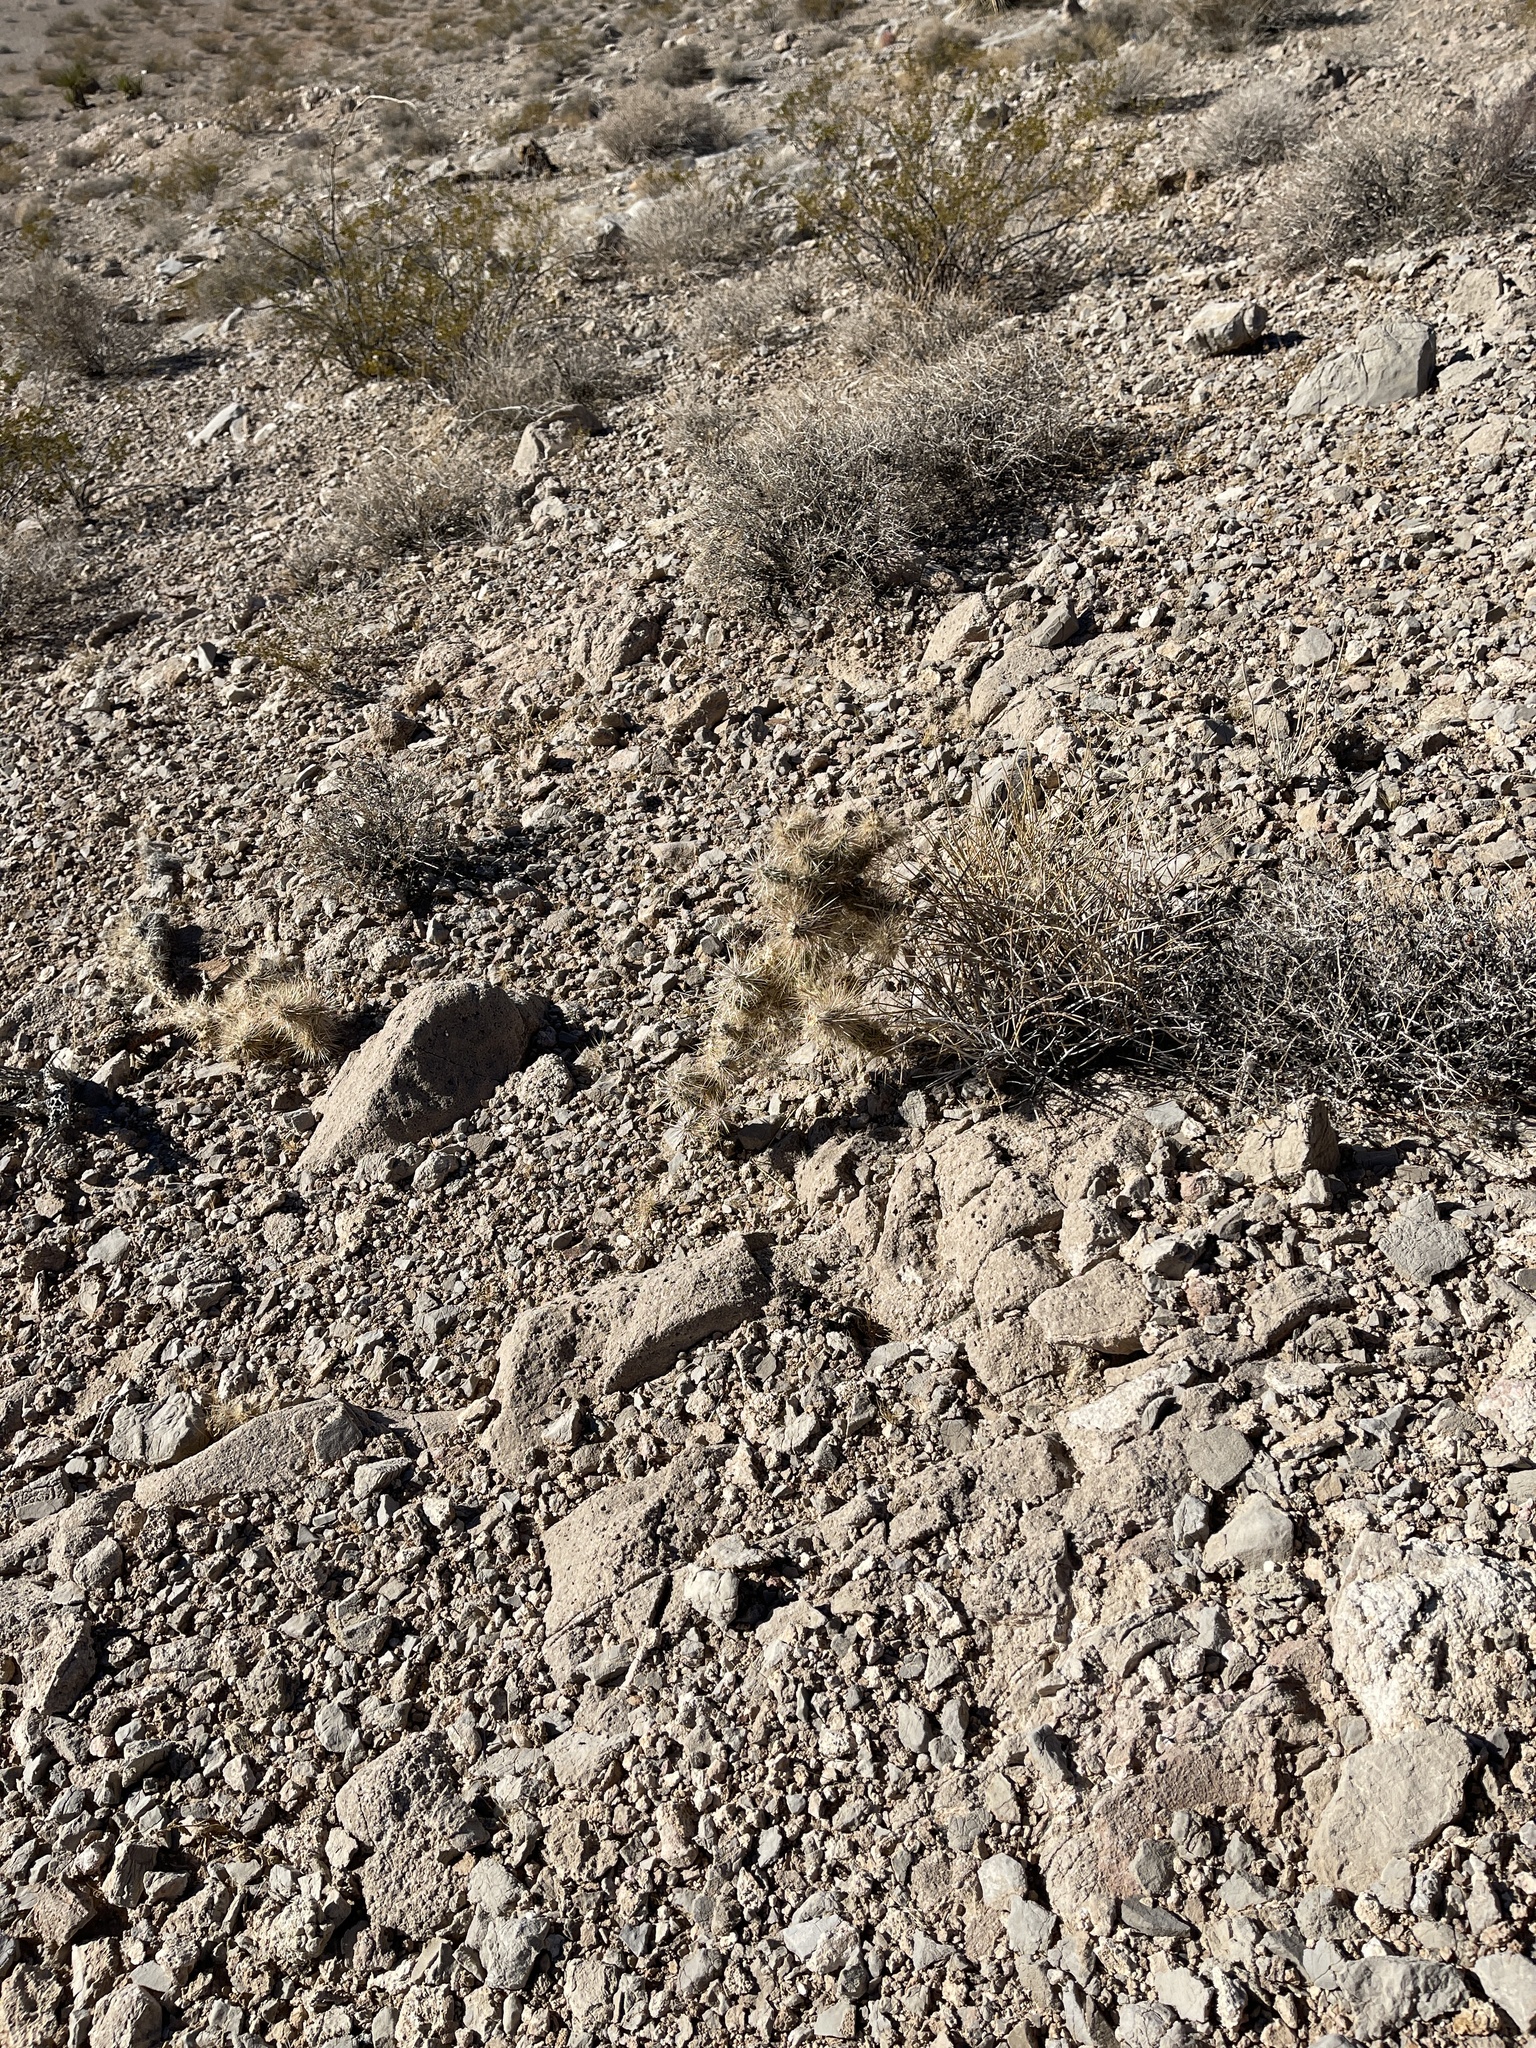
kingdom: Plantae
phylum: Tracheophyta
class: Magnoliopsida
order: Caryophyllales
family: Cactaceae
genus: Cylindropuntia
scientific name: Cylindropuntia echinocarpa
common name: Ground cholla
